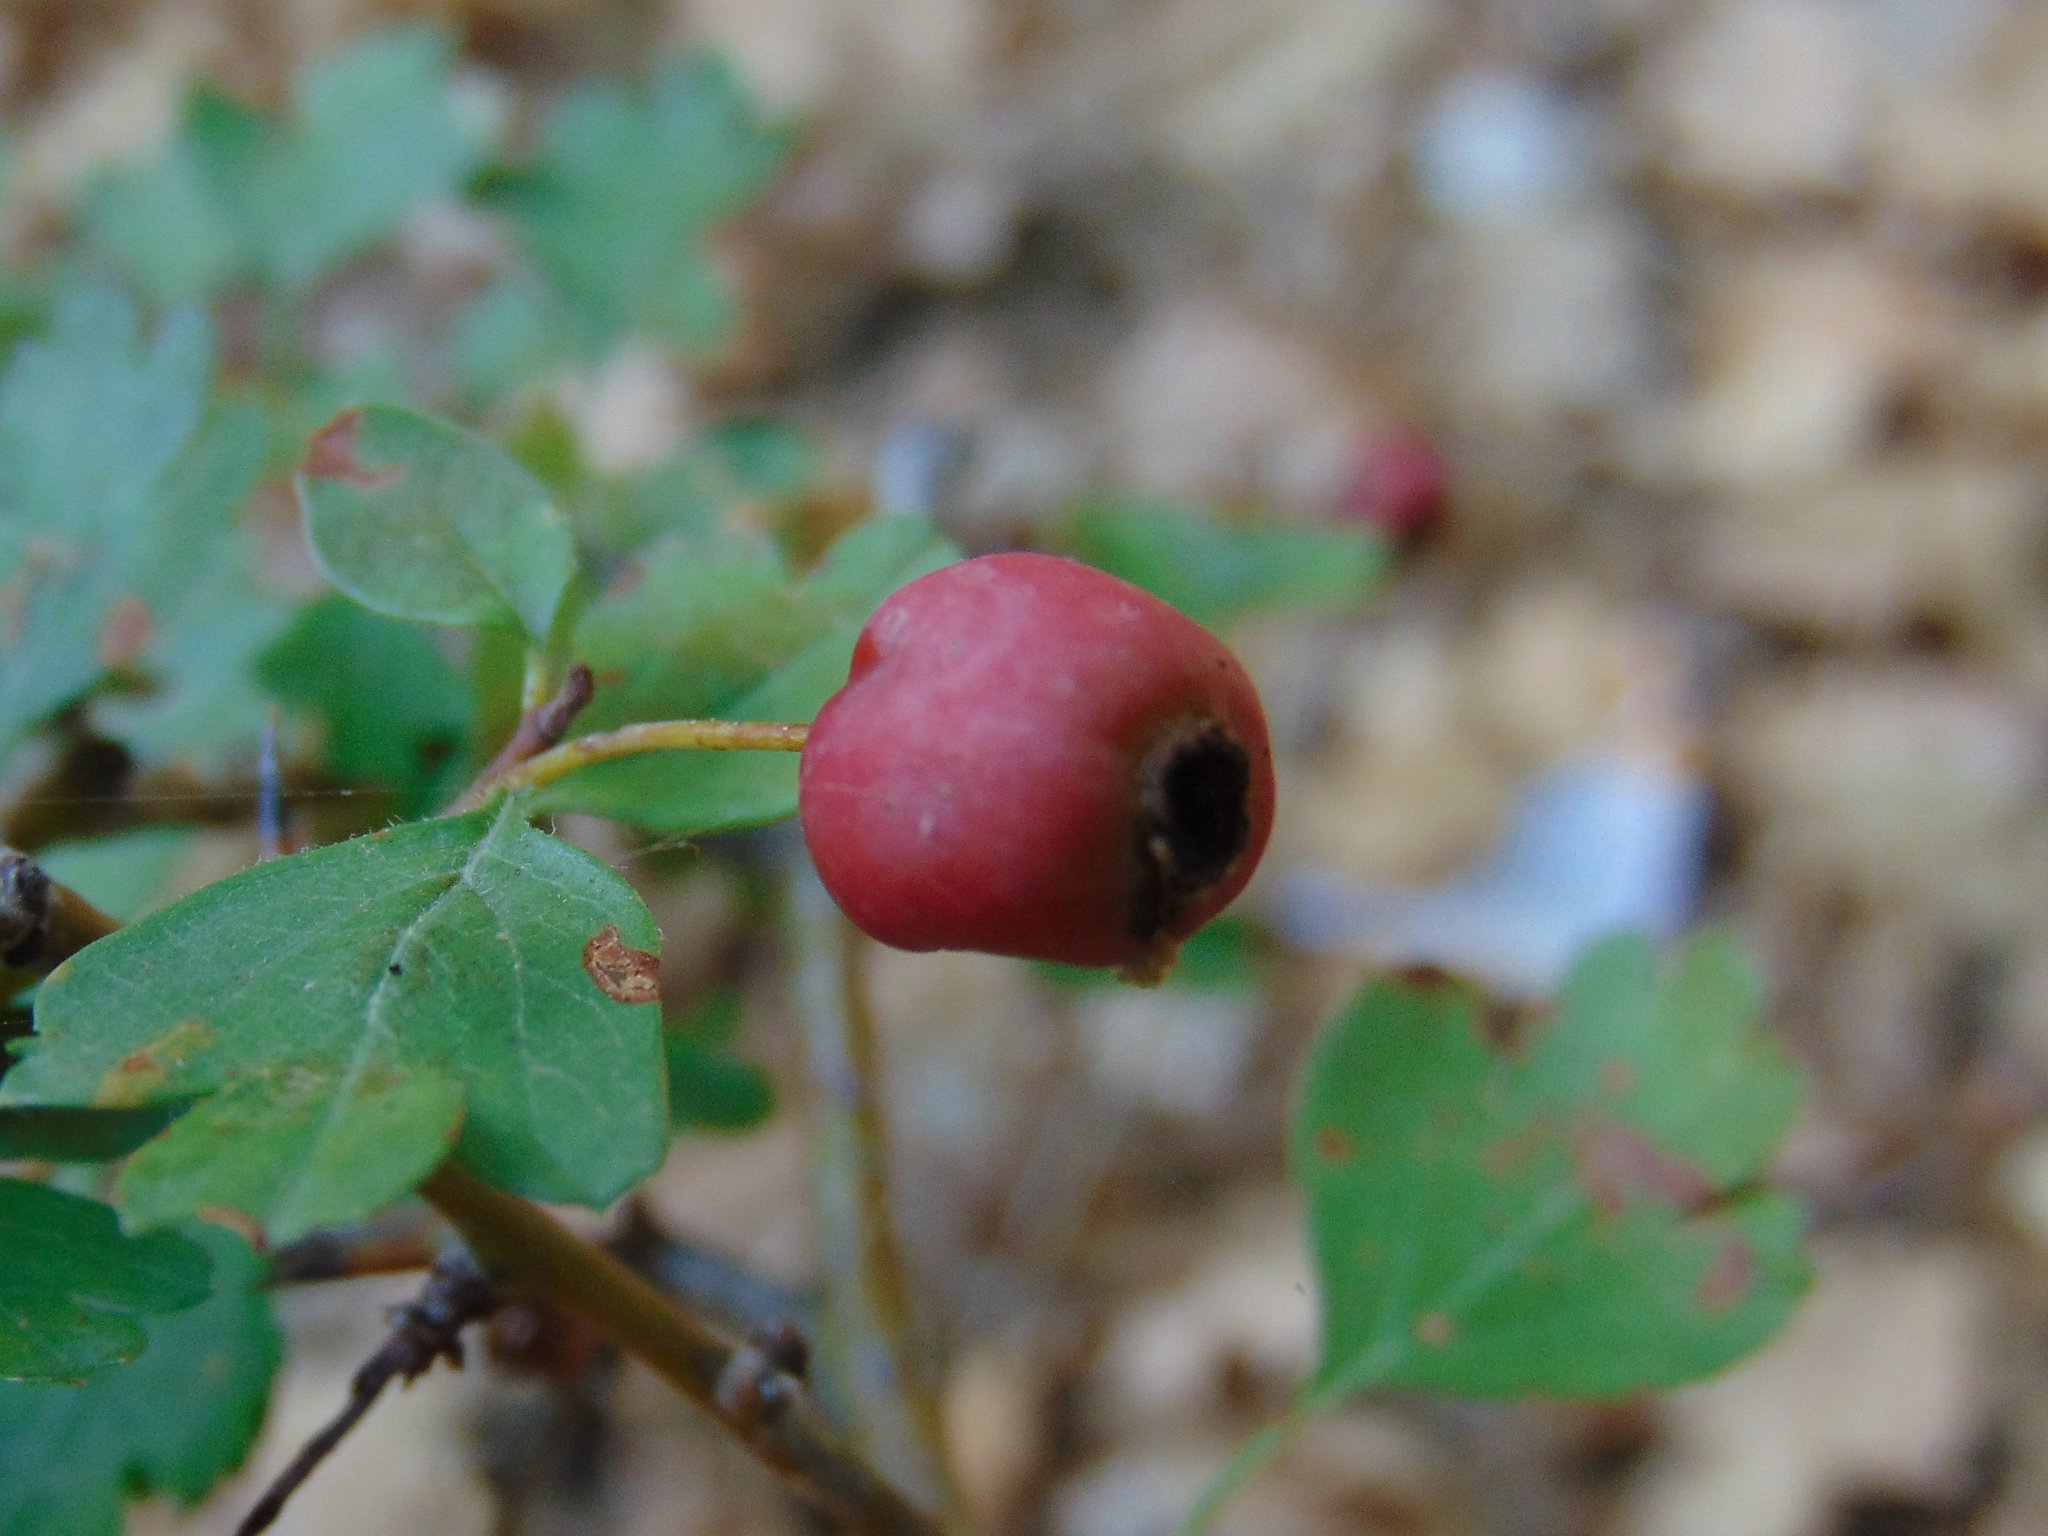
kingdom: Plantae
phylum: Tracheophyta
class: Magnoliopsida
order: Rosales
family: Rosaceae
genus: Crataegus
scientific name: Crataegus monogyna
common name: Hawthorn
